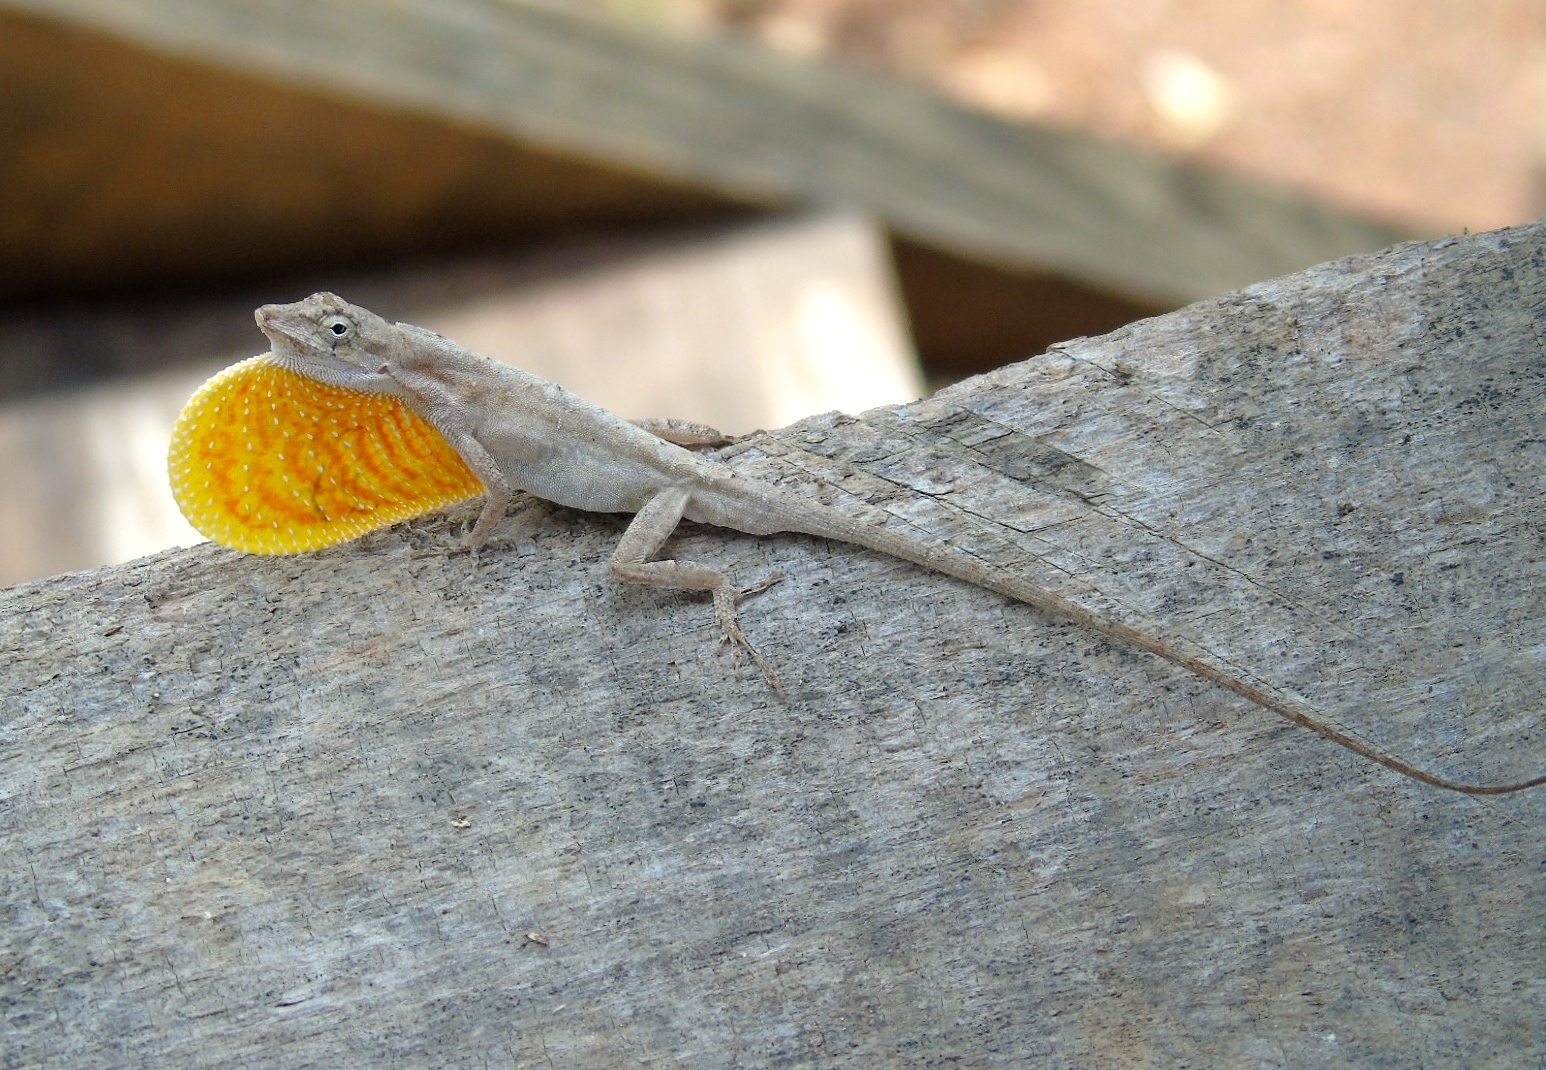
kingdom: Animalia
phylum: Chordata
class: Squamata
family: Dactyloidae
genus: Anolis
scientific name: Anolis nebulosus
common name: Clouded anole
